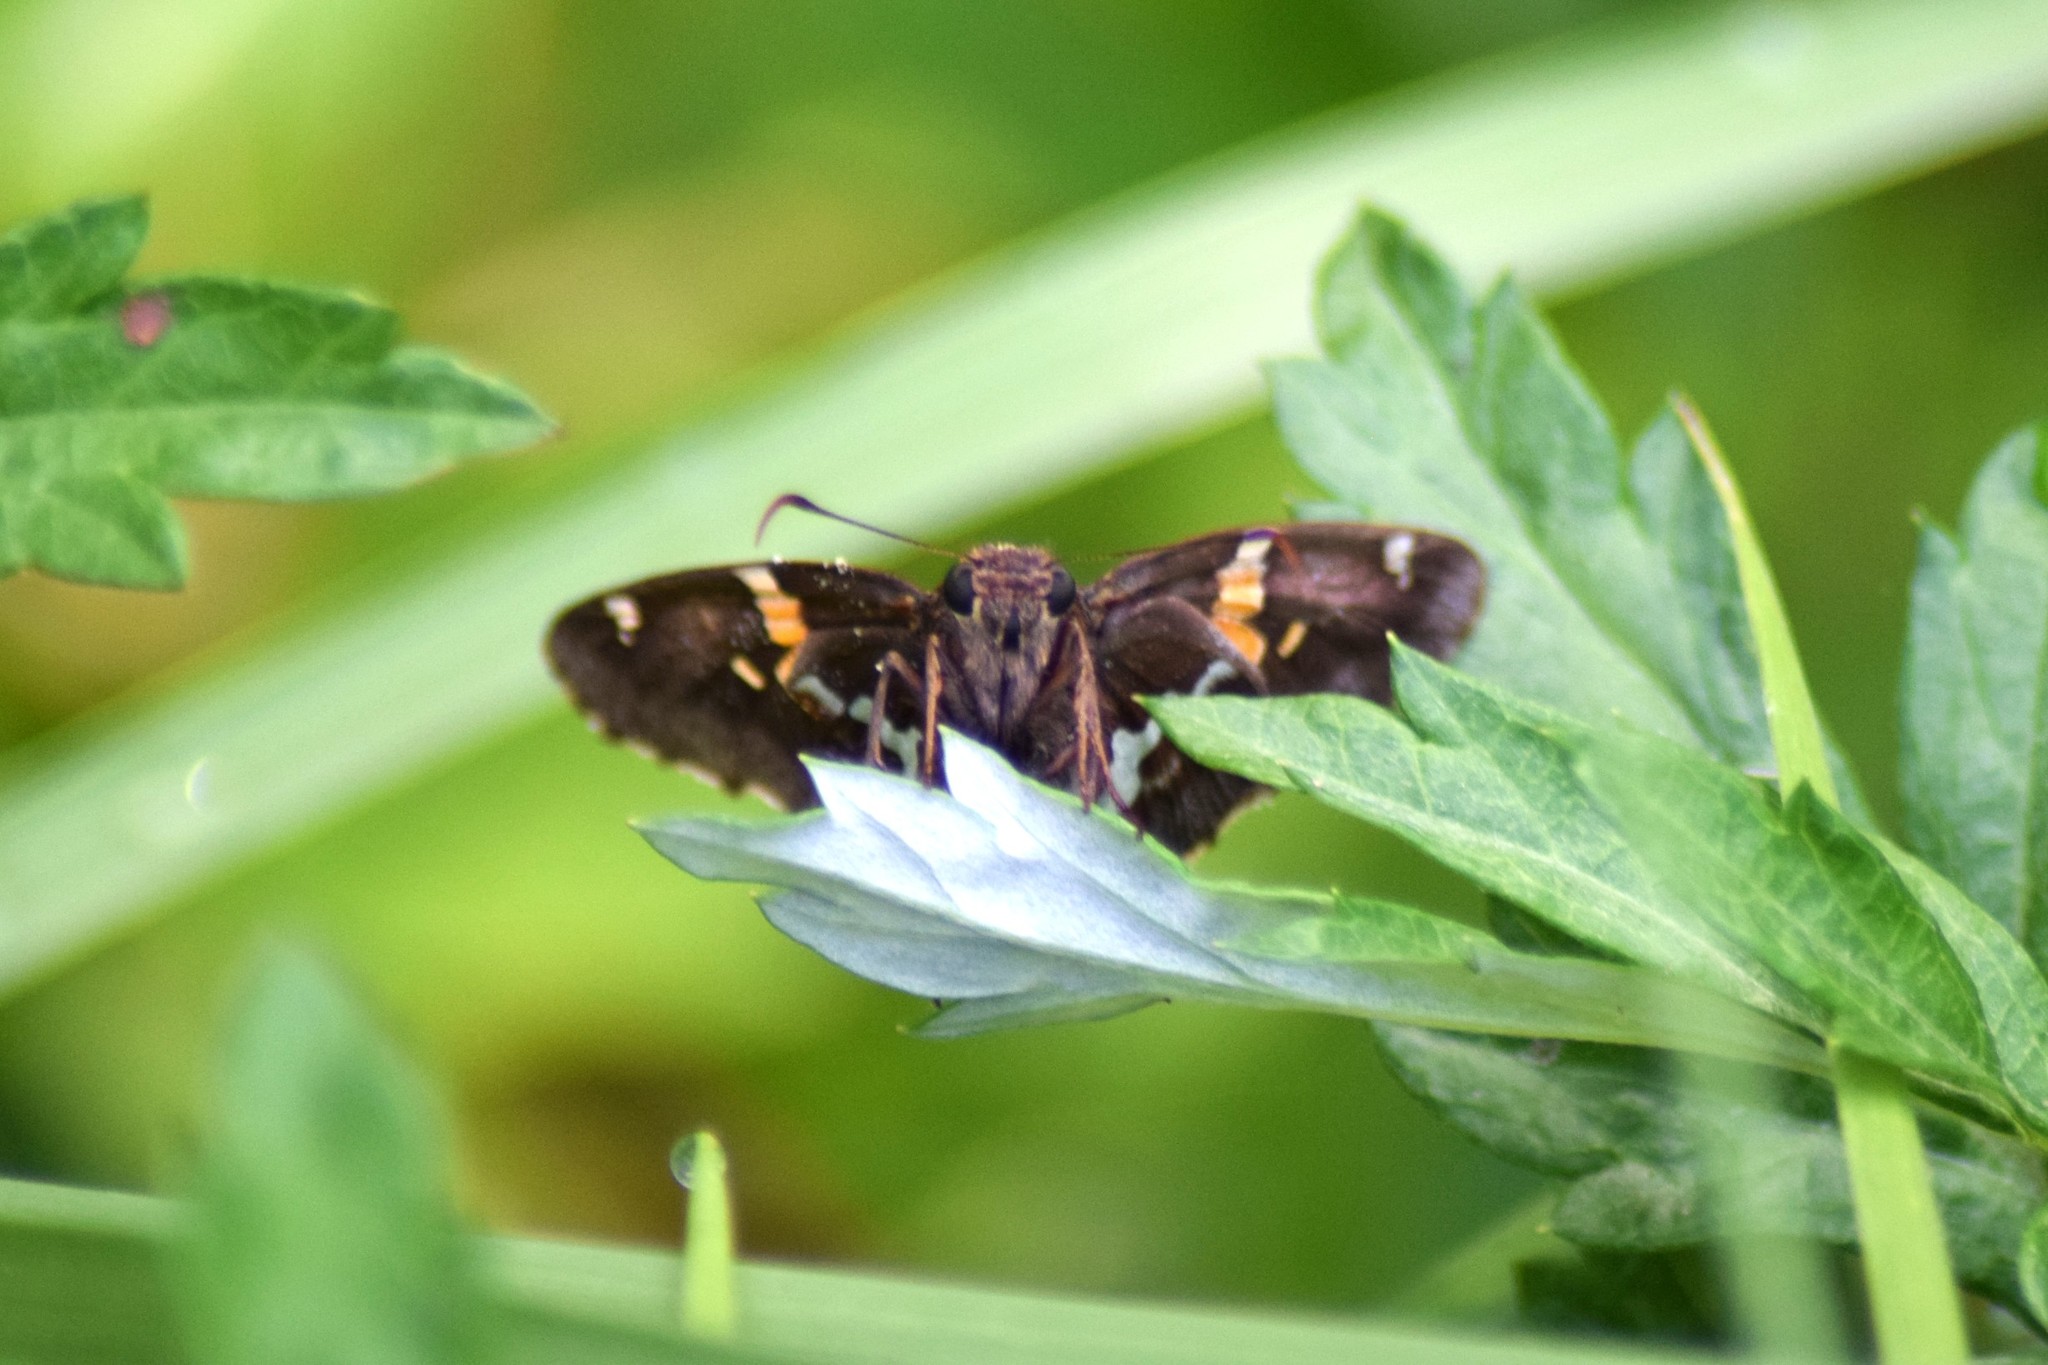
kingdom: Animalia
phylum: Arthropoda
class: Insecta
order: Lepidoptera
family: Hesperiidae
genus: Epargyreus
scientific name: Epargyreus clarus
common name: Silver-spotted skipper
